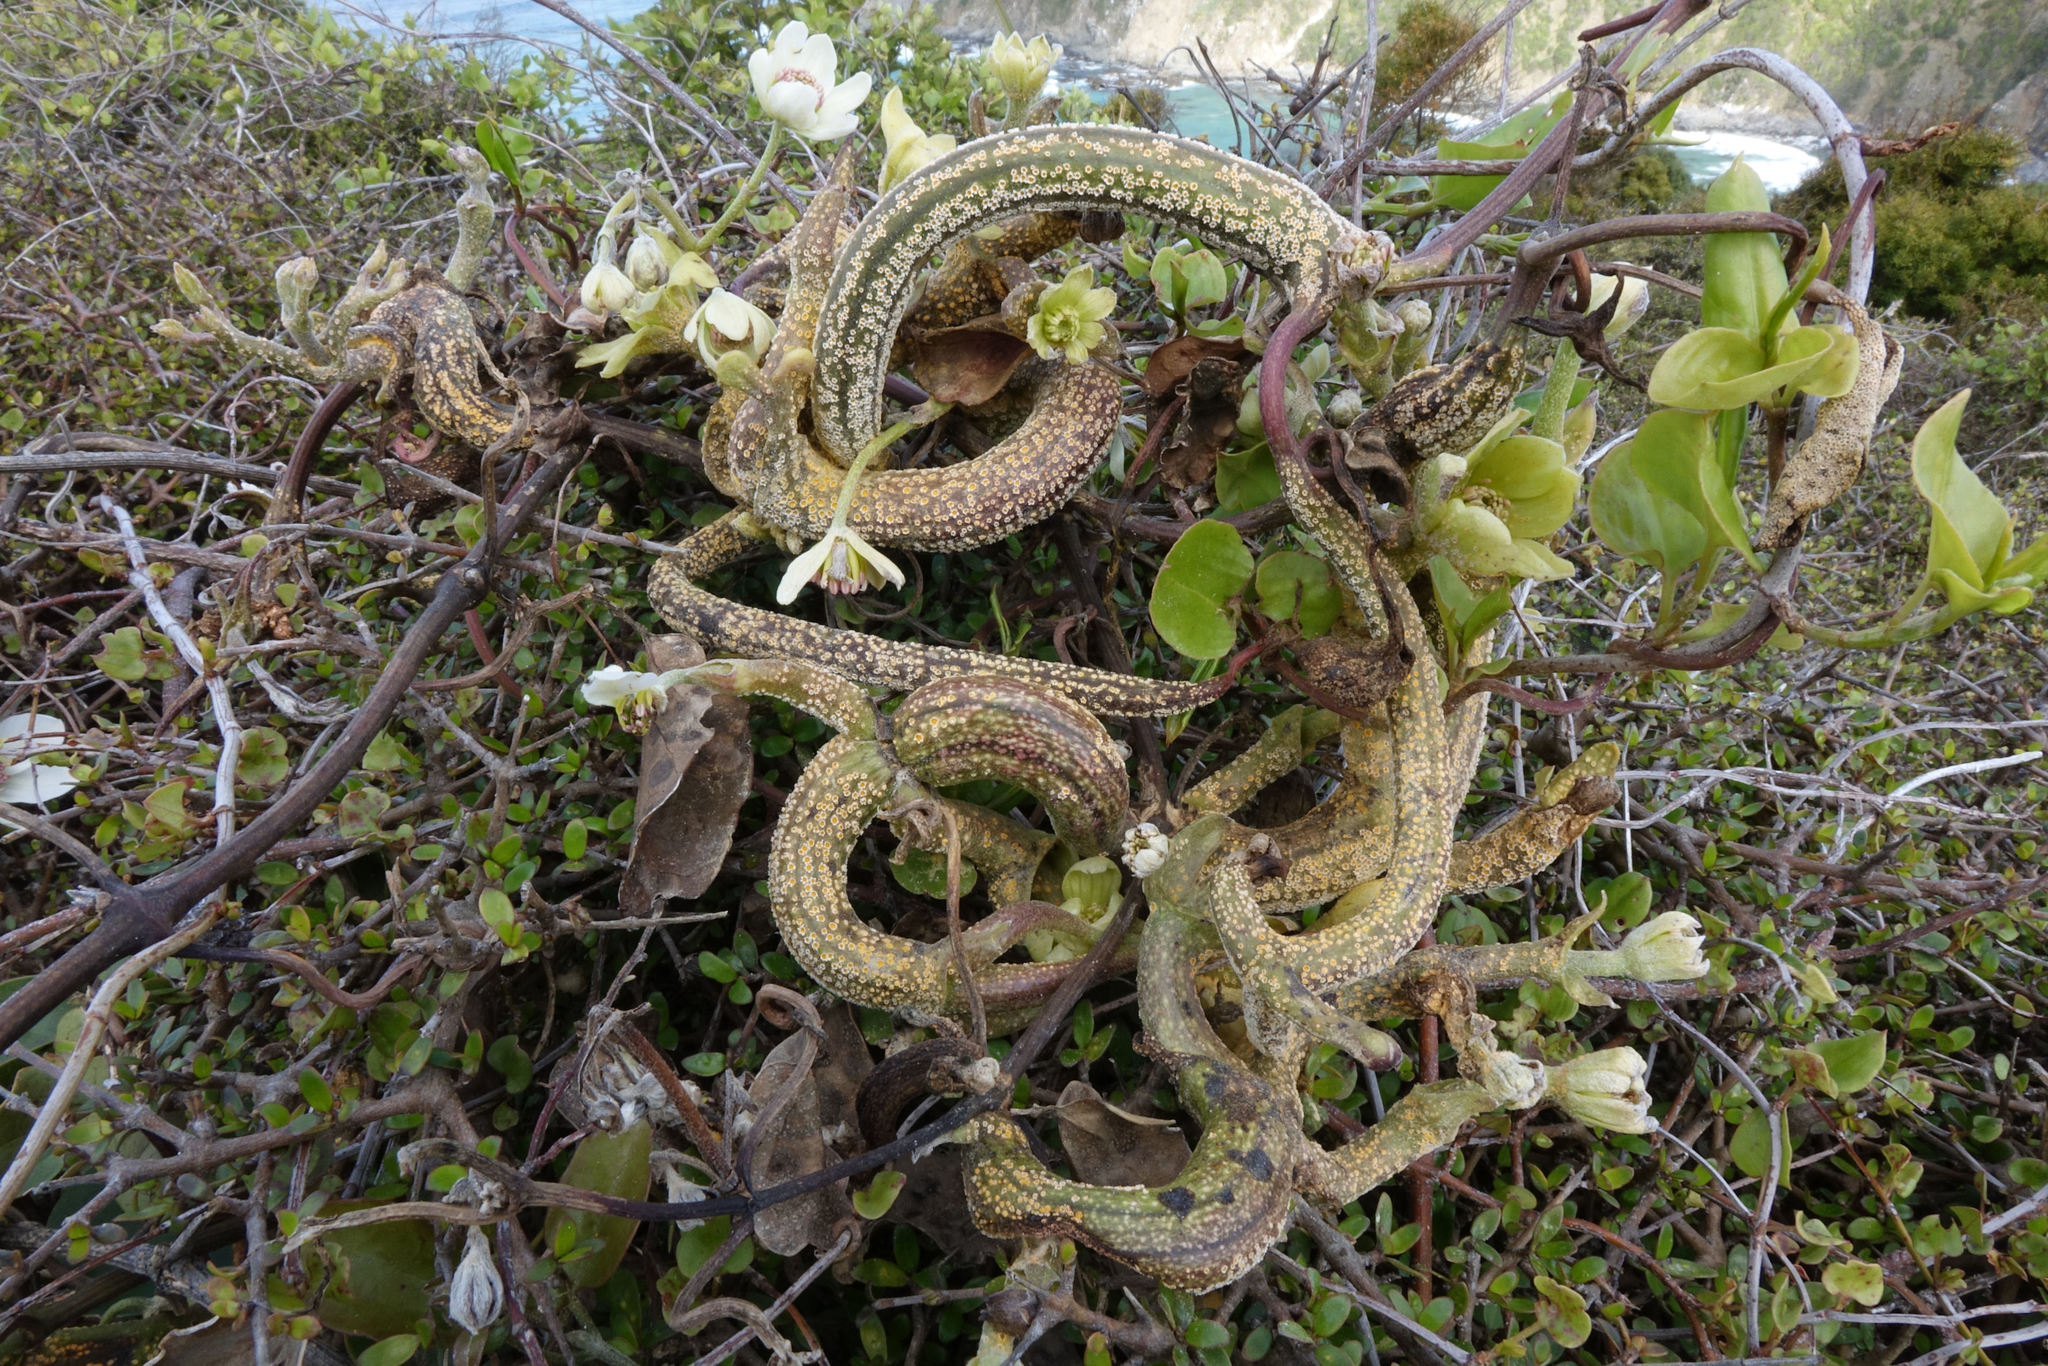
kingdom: Fungi
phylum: Basidiomycota
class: Pucciniomycetes
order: Pucciniales
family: Pucciniaceae
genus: Puccinia
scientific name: Puccinia otagensis
